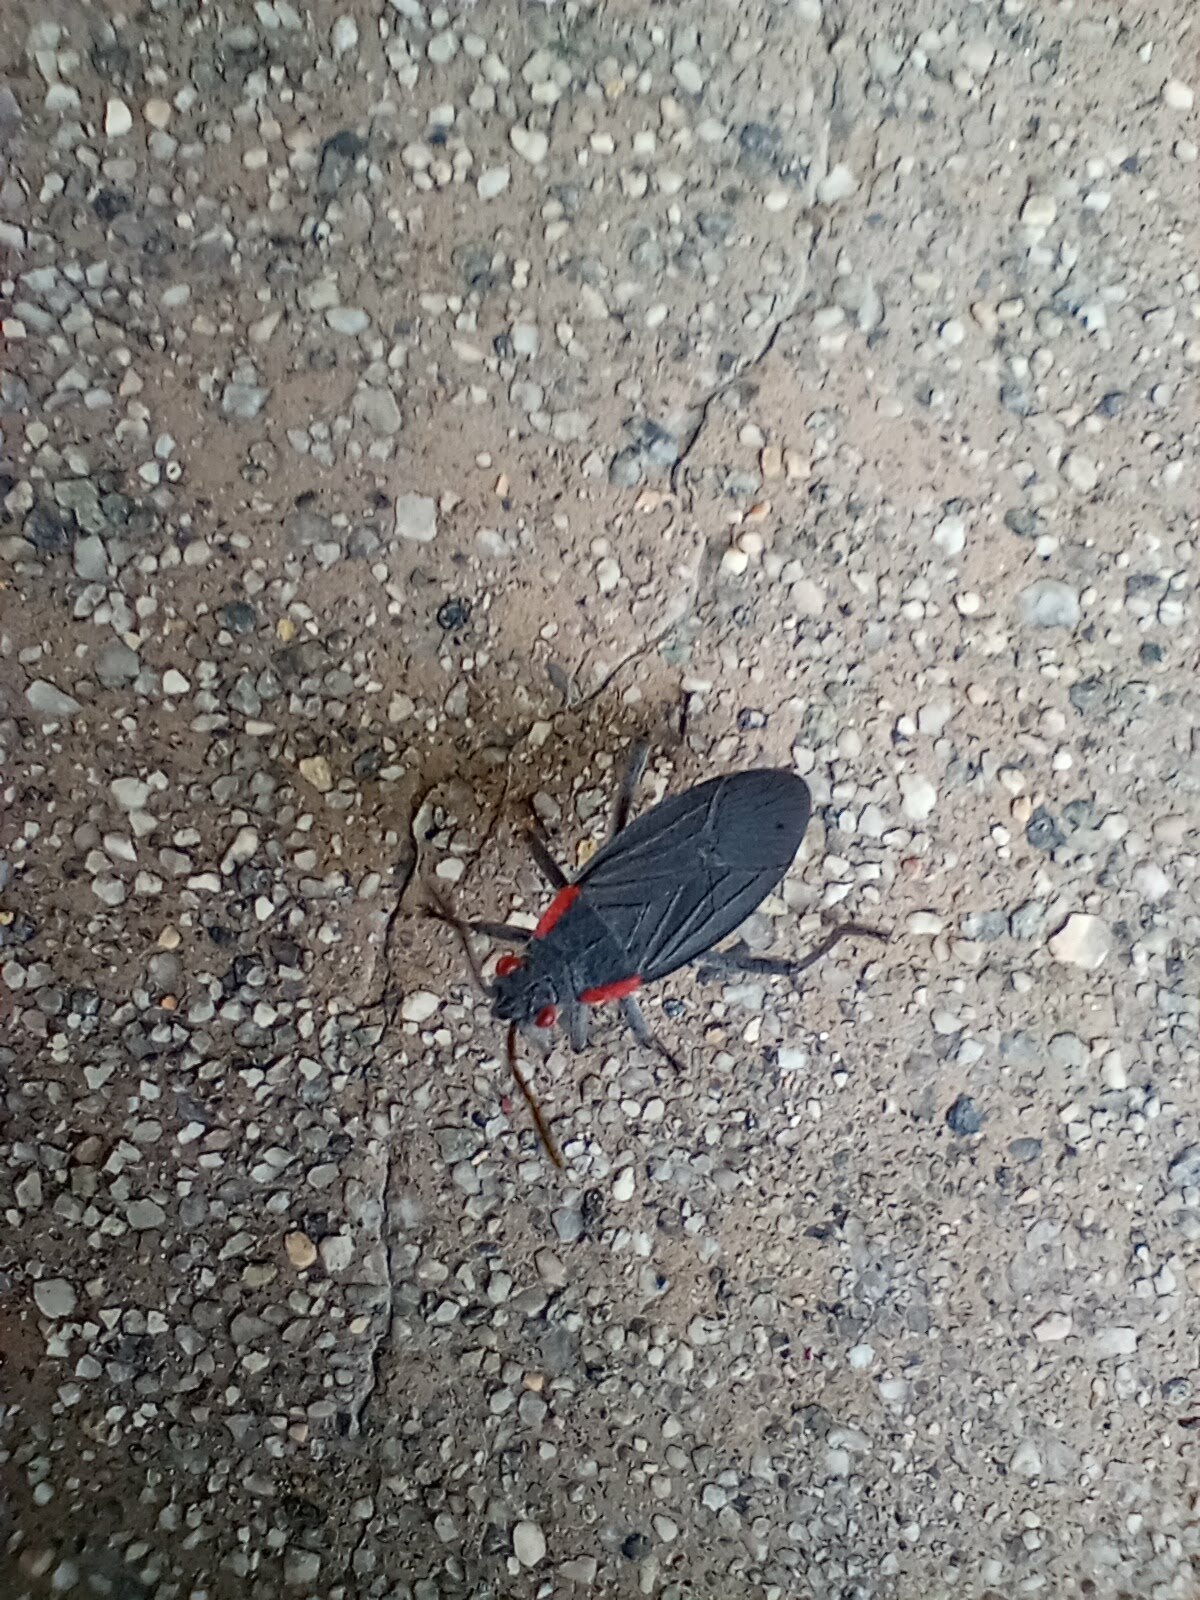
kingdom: Animalia
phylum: Arthropoda
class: Insecta
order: Hemiptera
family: Rhopalidae
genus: Jadera
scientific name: Jadera haematoloma
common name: Red-shouldered bug
